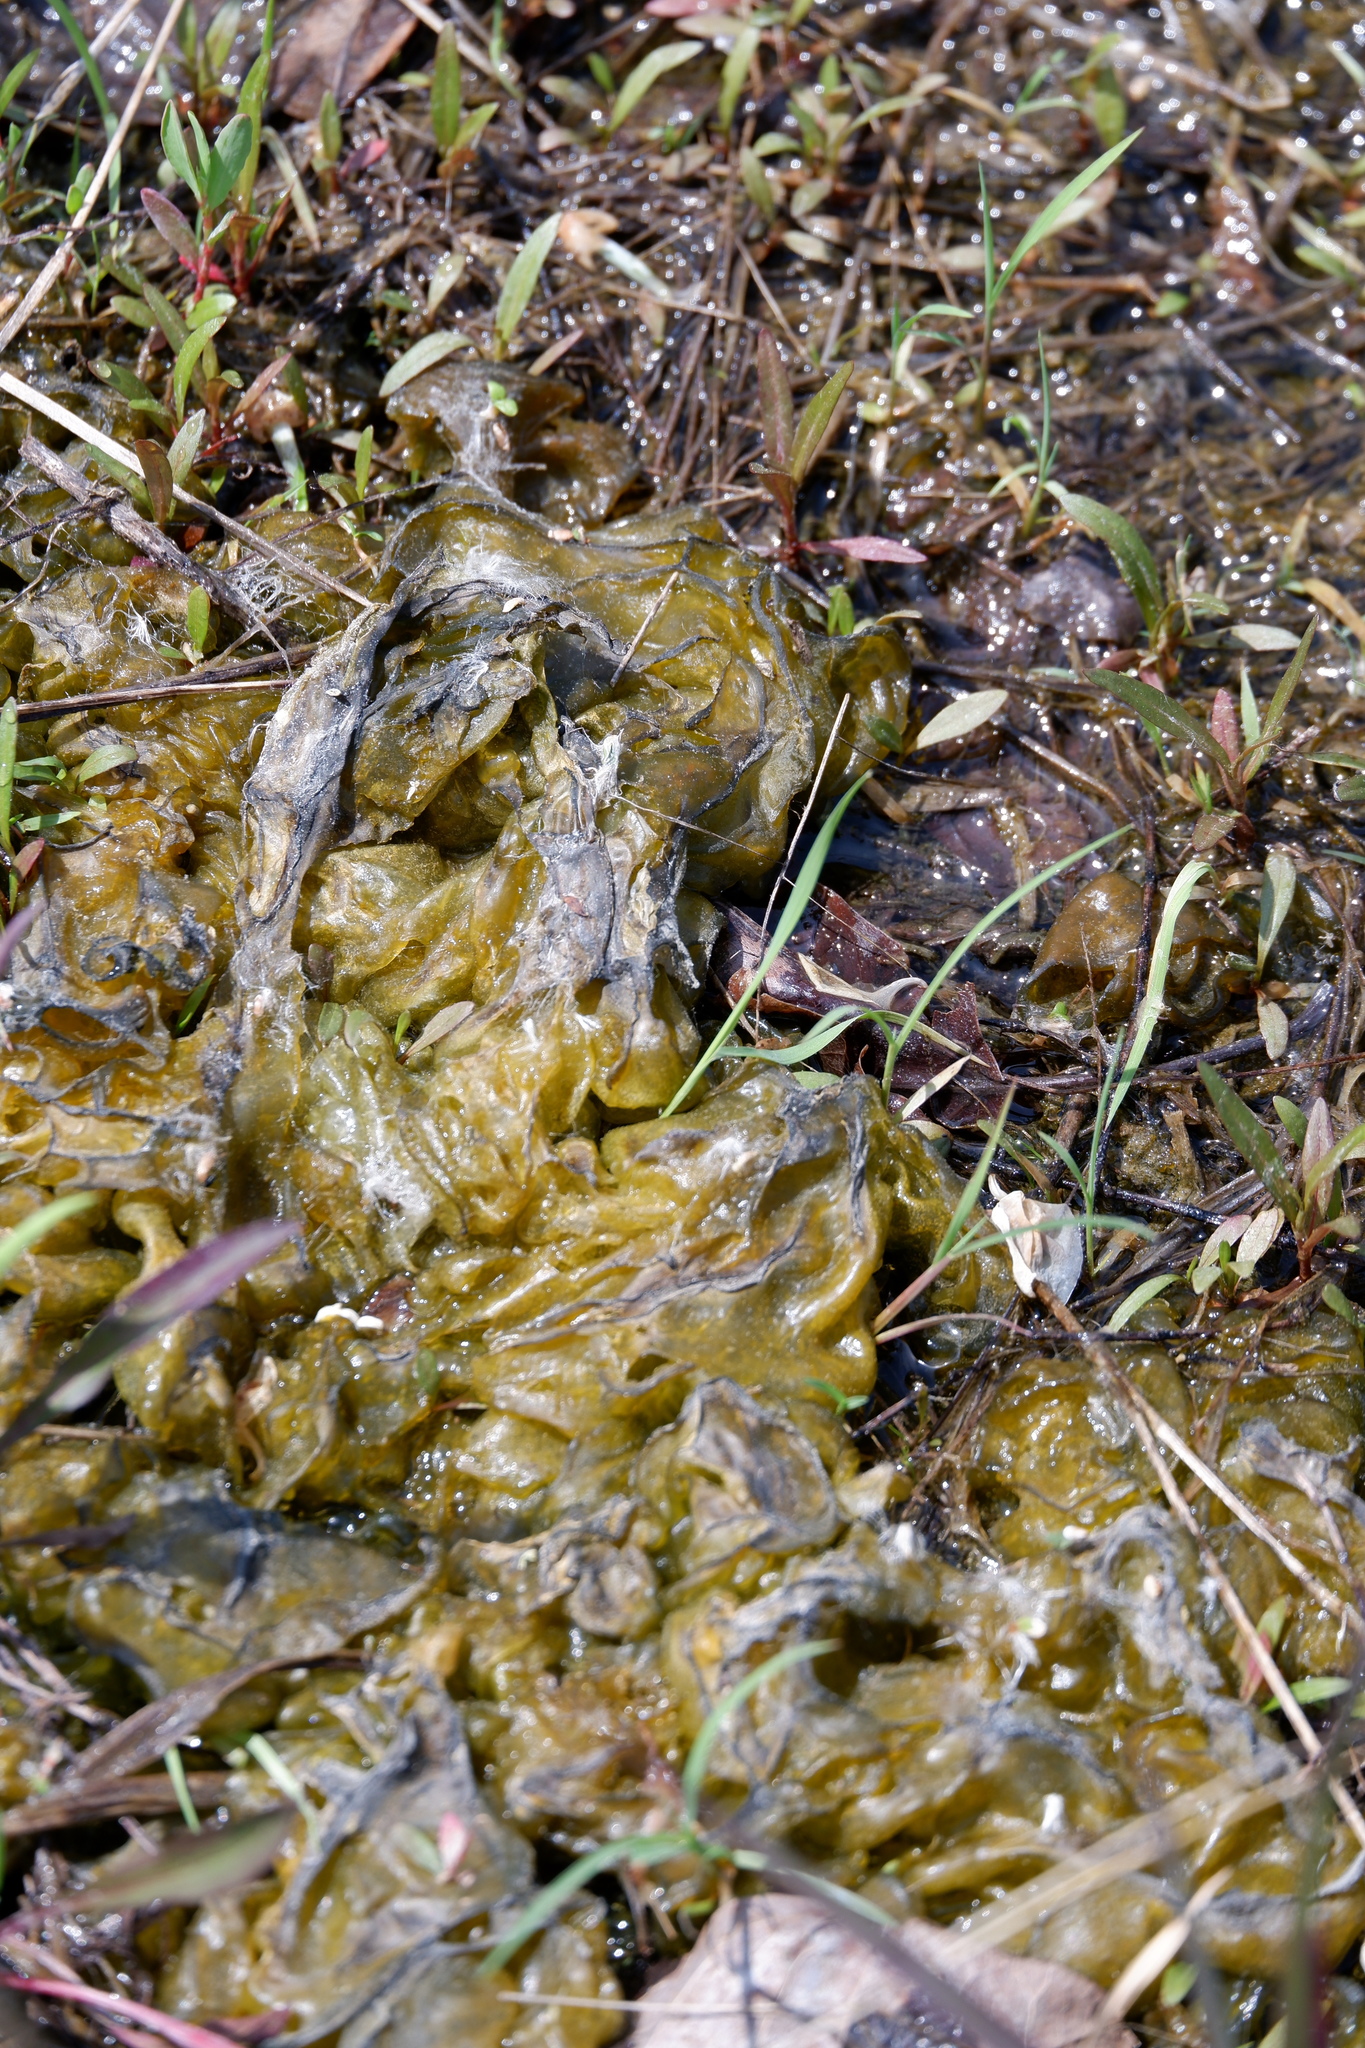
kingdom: Bacteria
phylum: Cyanobacteria
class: Cyanobacteriia
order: Cyanobacteriales
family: Nostocaceae
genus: Nostoc
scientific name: Nostoc commune
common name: Star jelly
